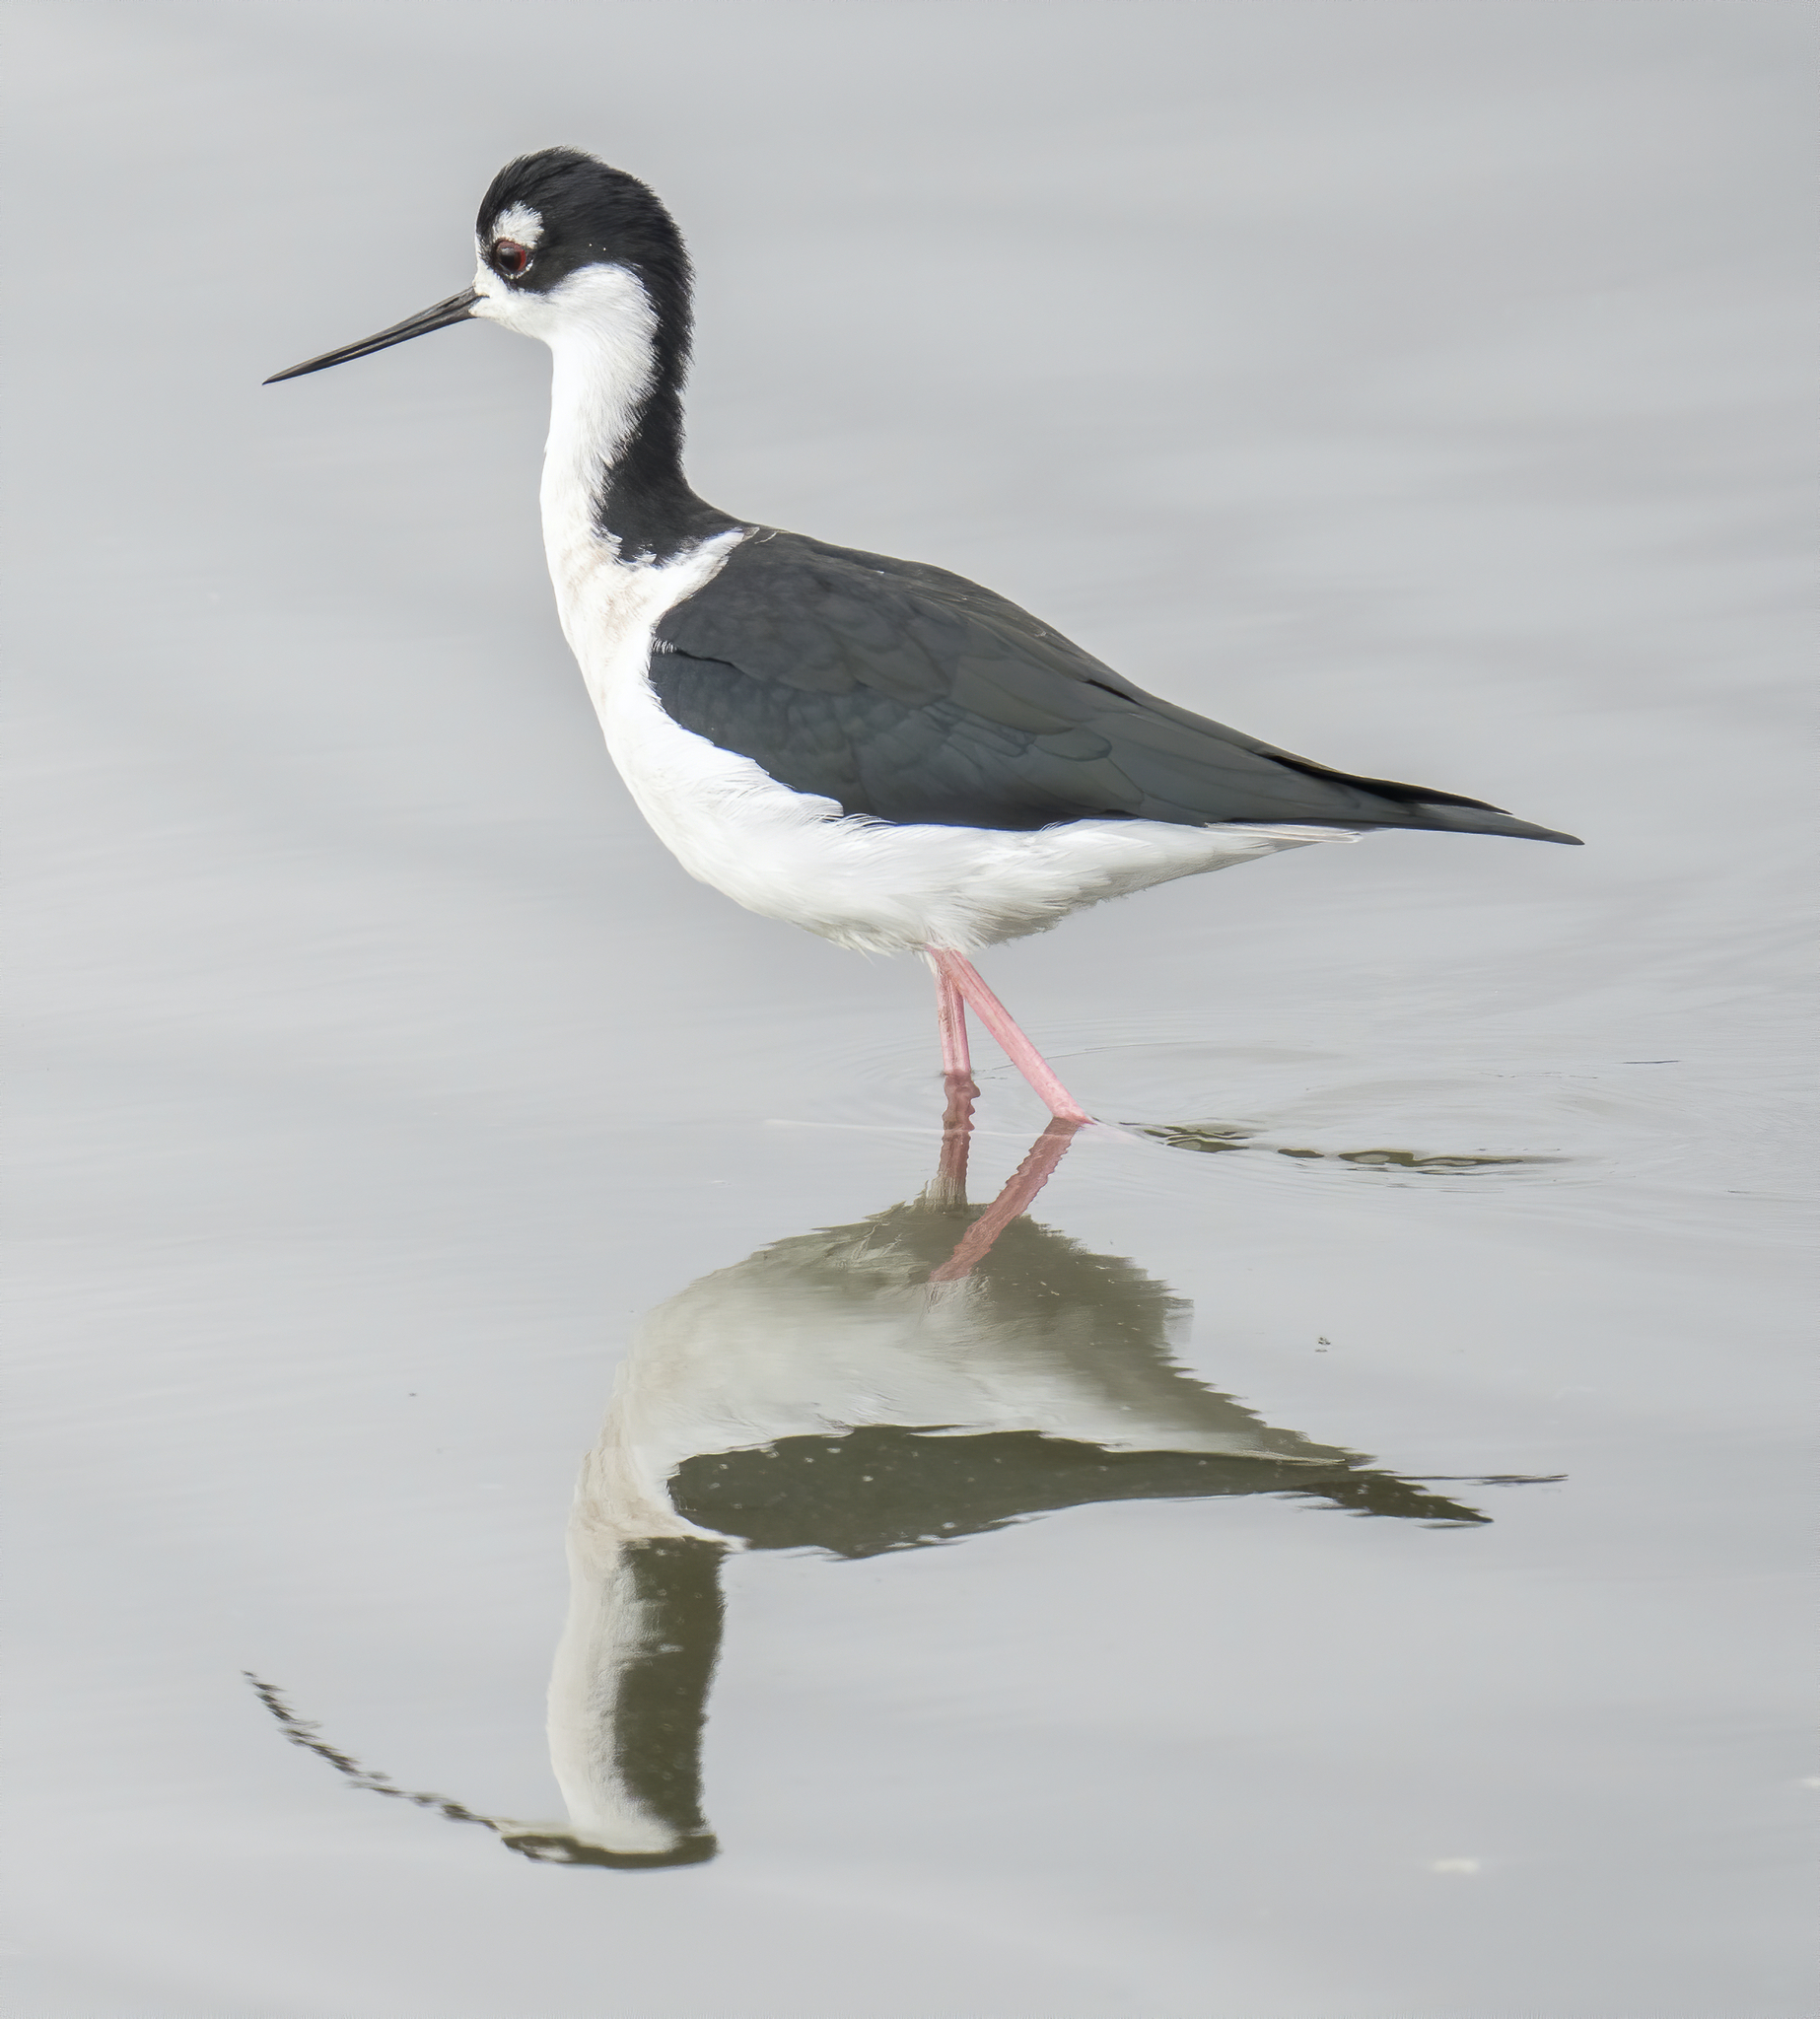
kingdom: Animalia
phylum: Chordata
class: Aves
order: Charadriiformes
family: Recurvirostridae
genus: Himantopus
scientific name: Himantopus mexicanus
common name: Black-necked stilt
